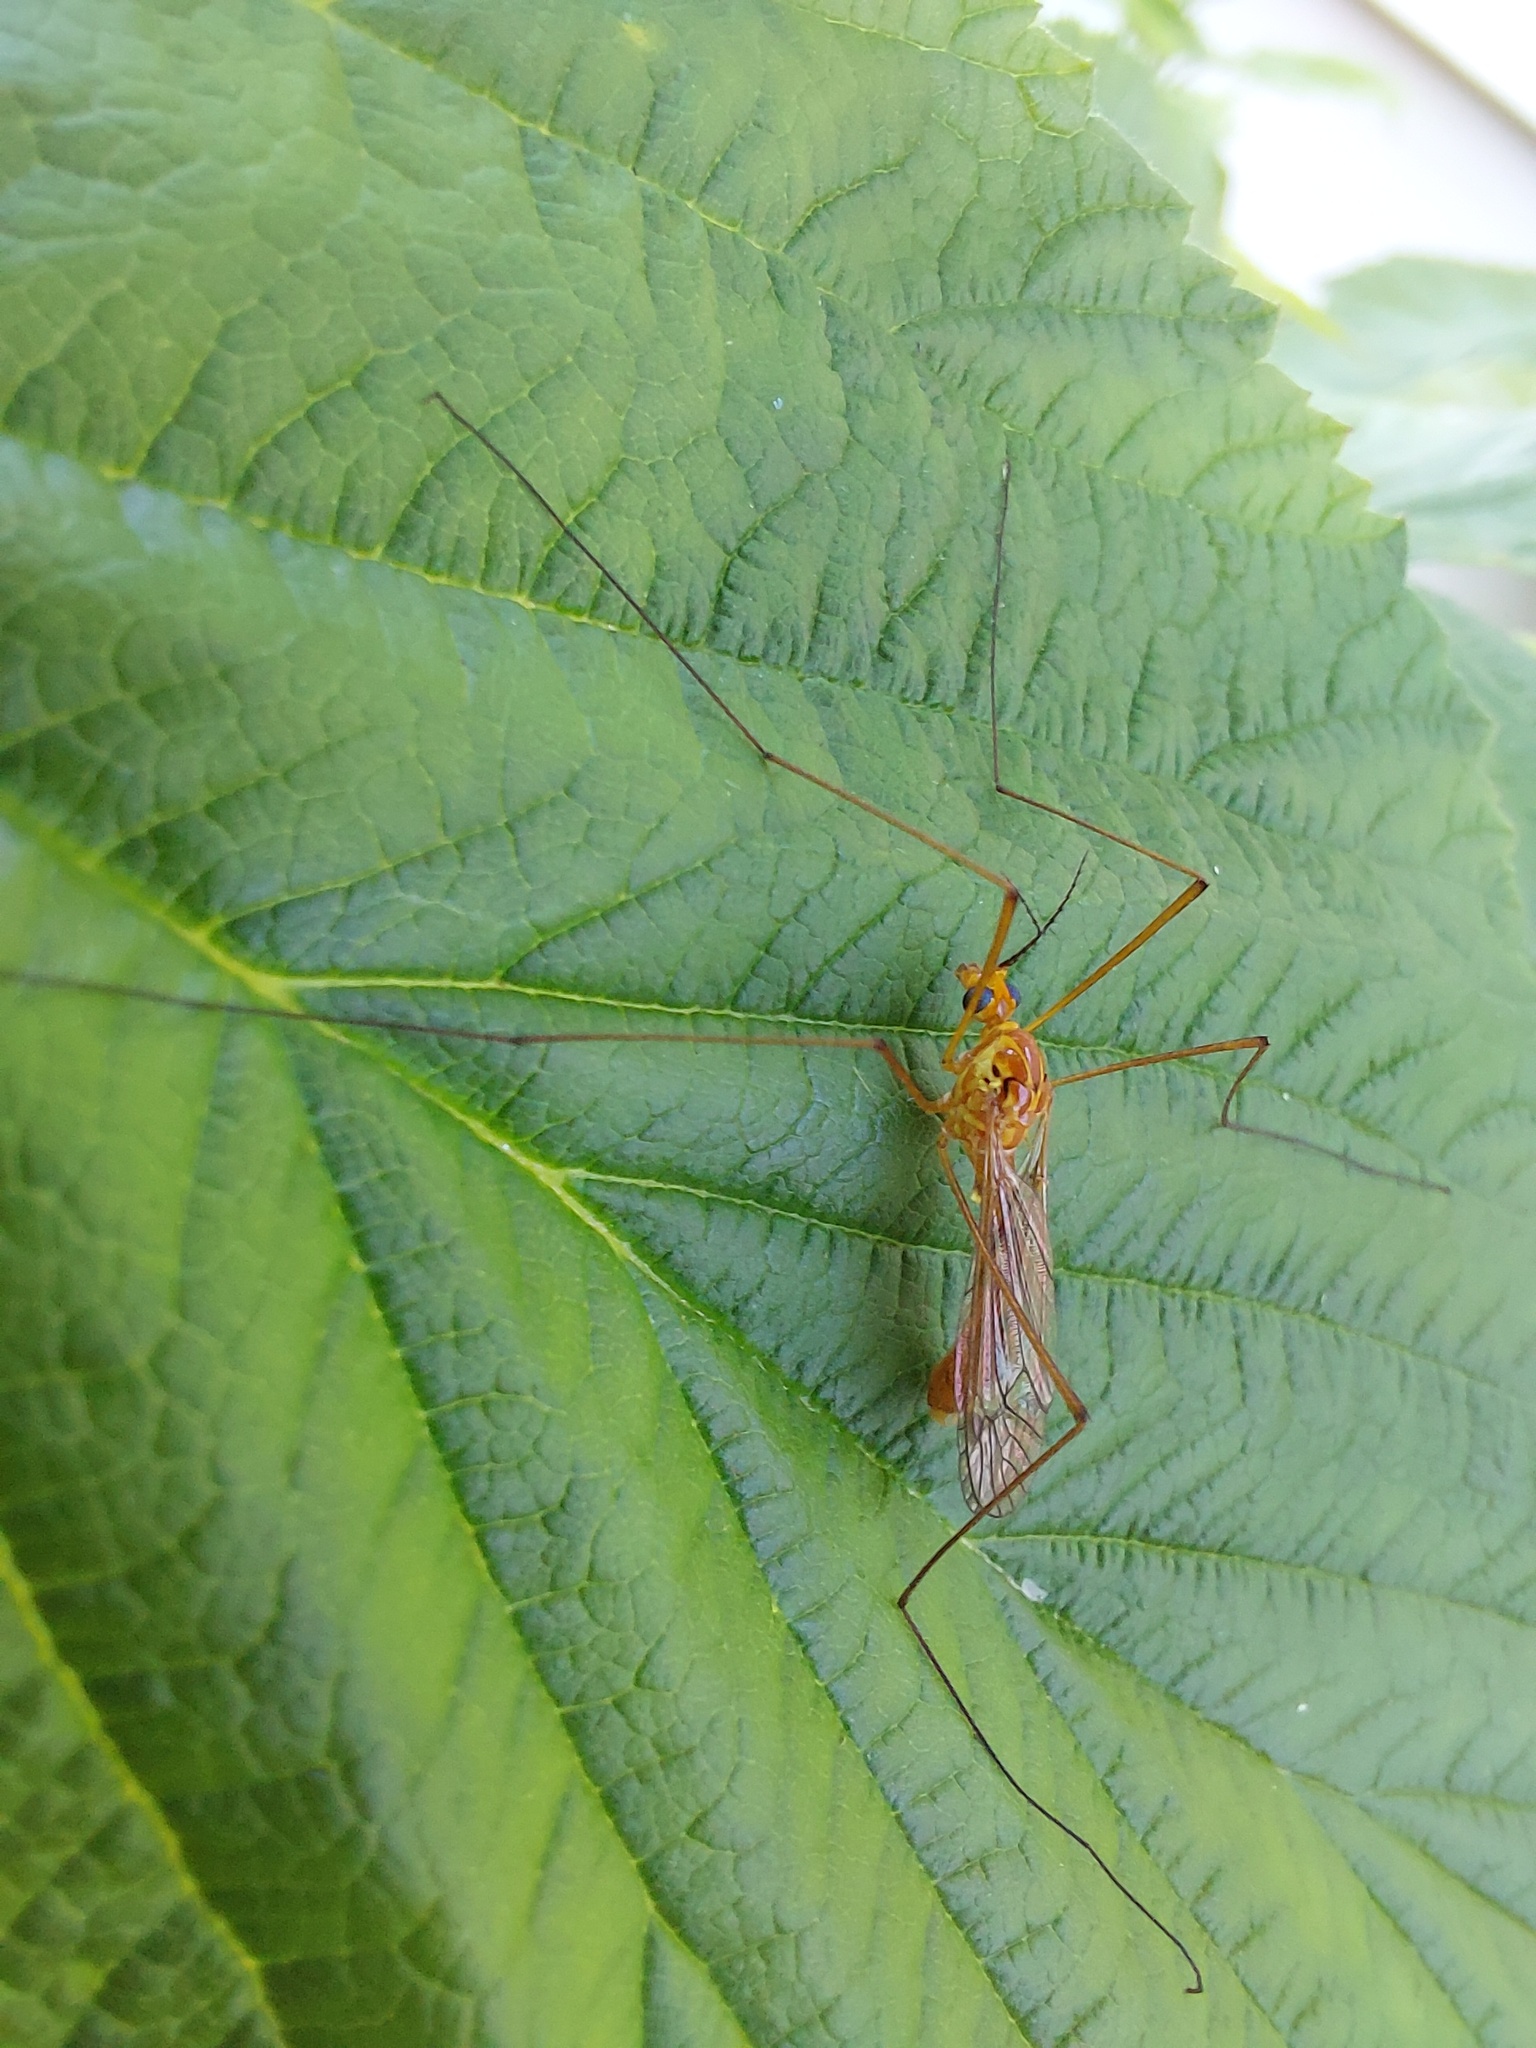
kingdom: Animalia
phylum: Arthropoda
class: Insecta
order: Diptera
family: Tipulidae
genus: Nephrotoma
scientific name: Nephrotoma ferruginea
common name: Ferruginous tiger crane fly
